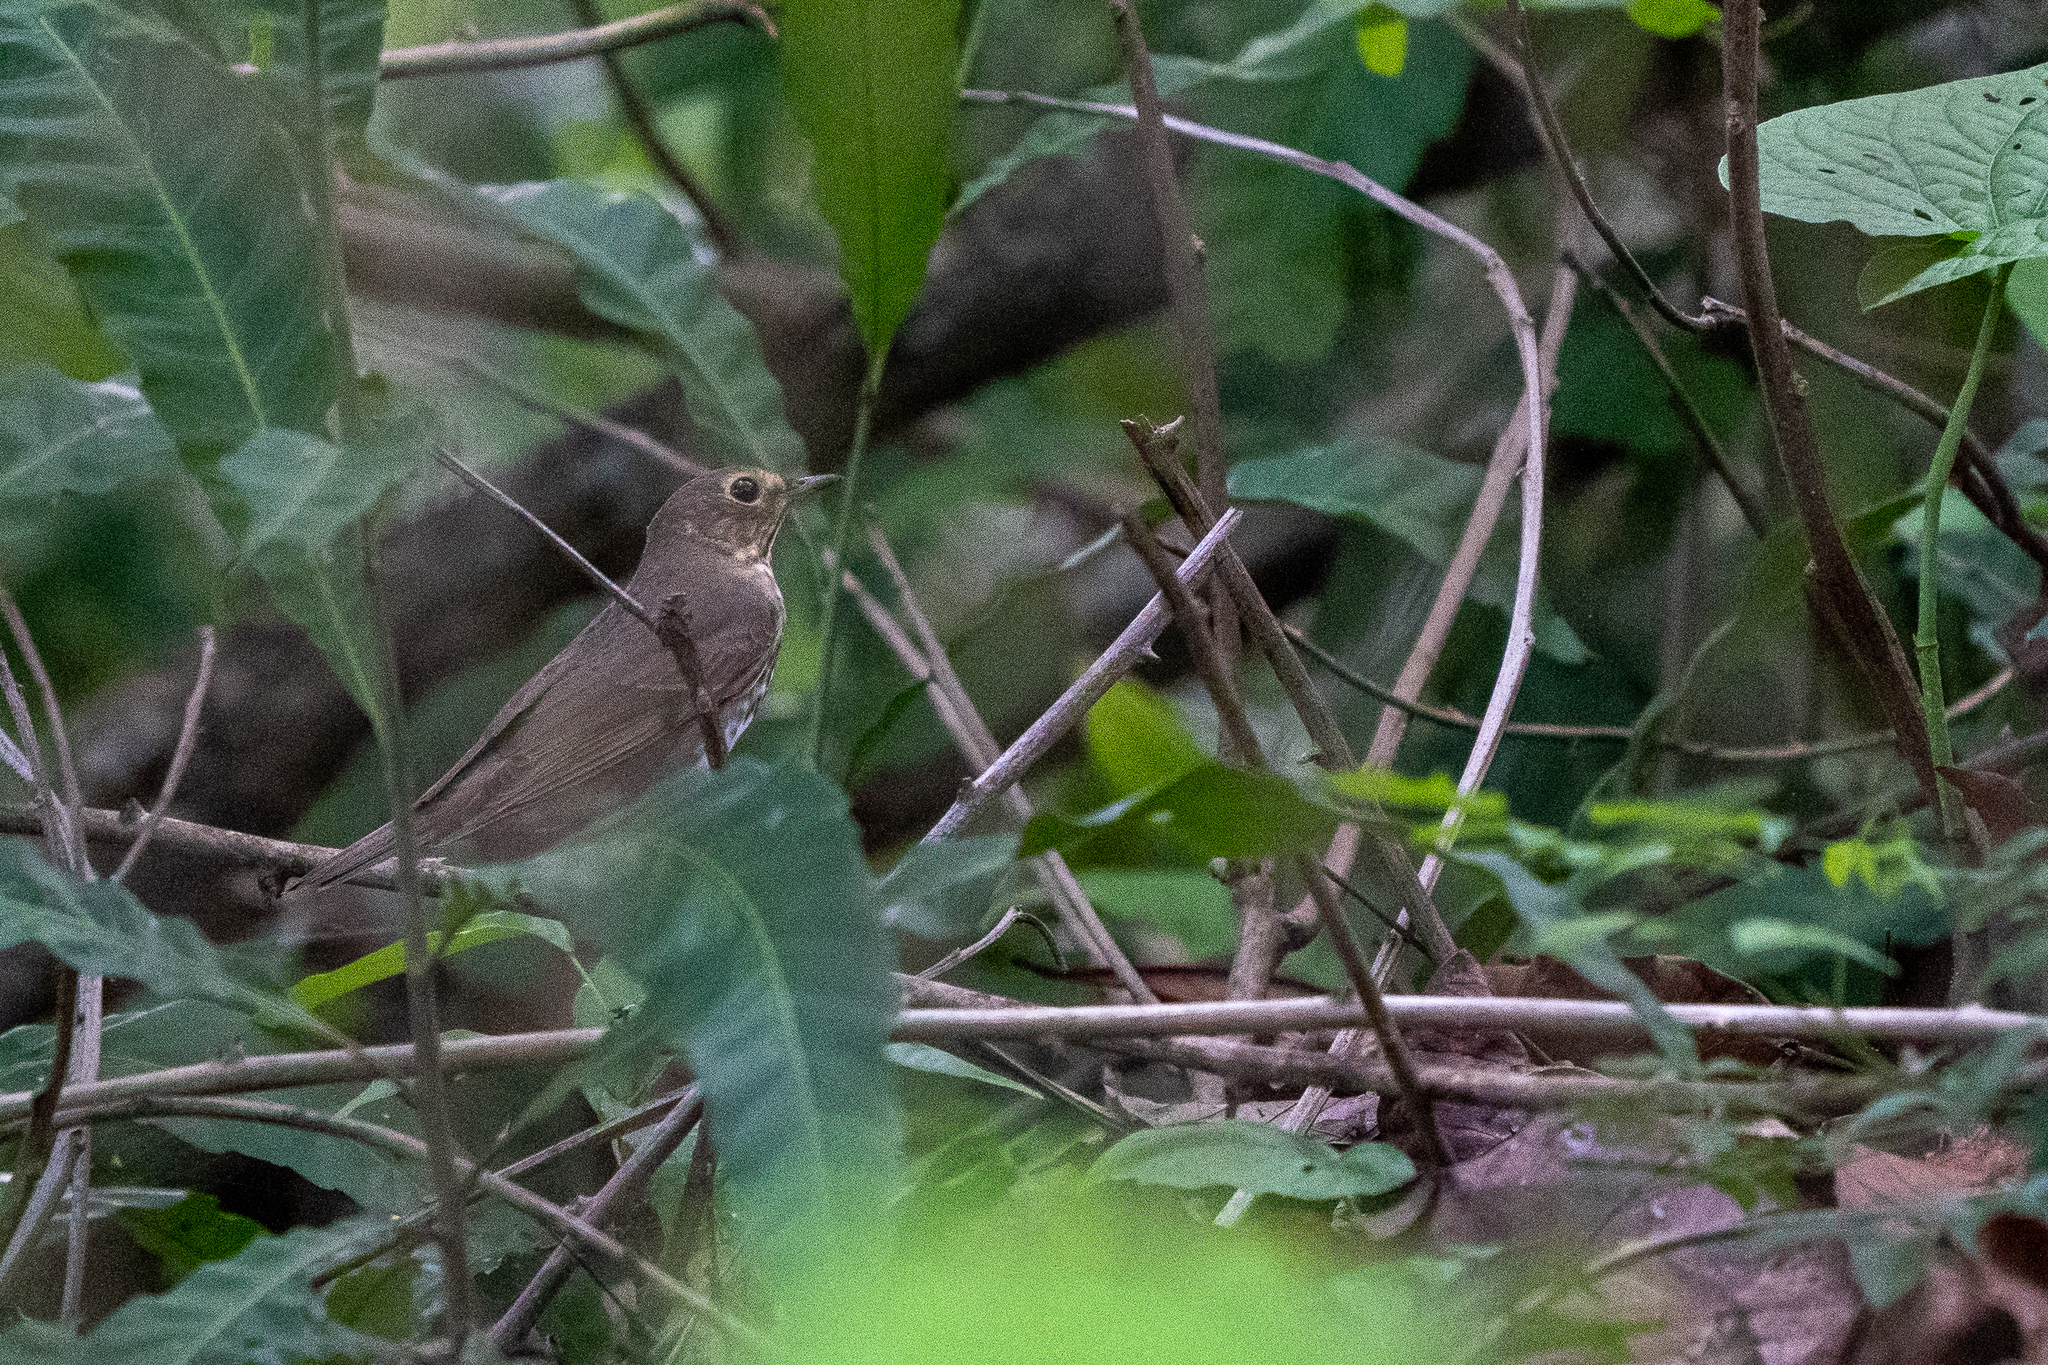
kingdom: Animalia
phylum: Chordata
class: Aves
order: Passeriformes
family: Turdidae
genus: Catharus
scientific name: Catharus ustulatus
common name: Swainson's thrush
